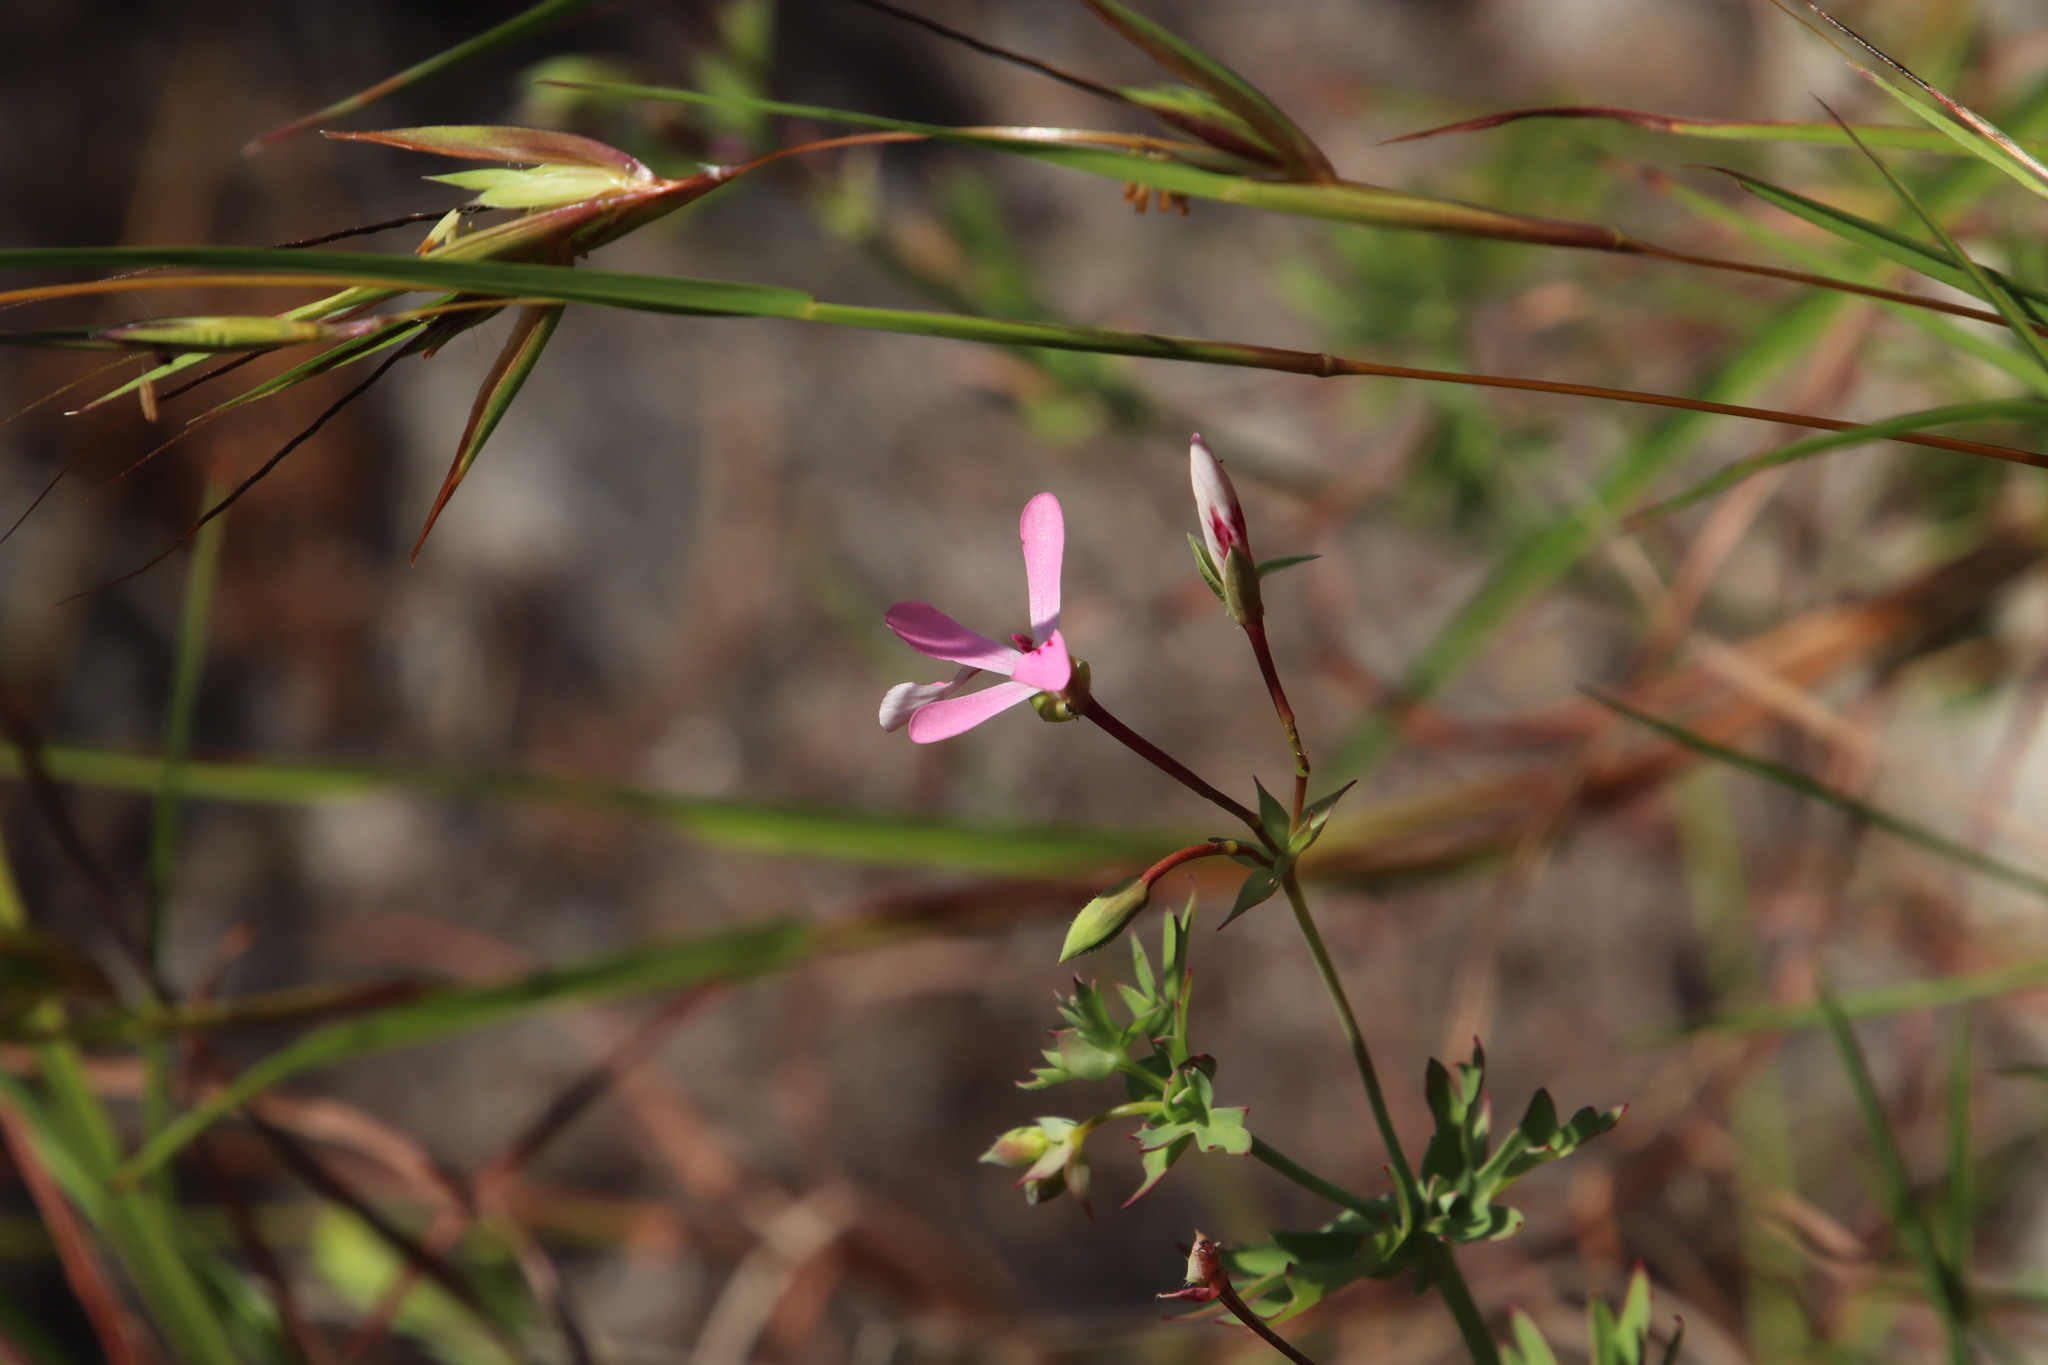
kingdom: Plantae
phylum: Tracheophyta
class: Magnoliopsida
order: Geraniales
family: Geraniaceae
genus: Pelargonium
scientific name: Pelargonium patulum
